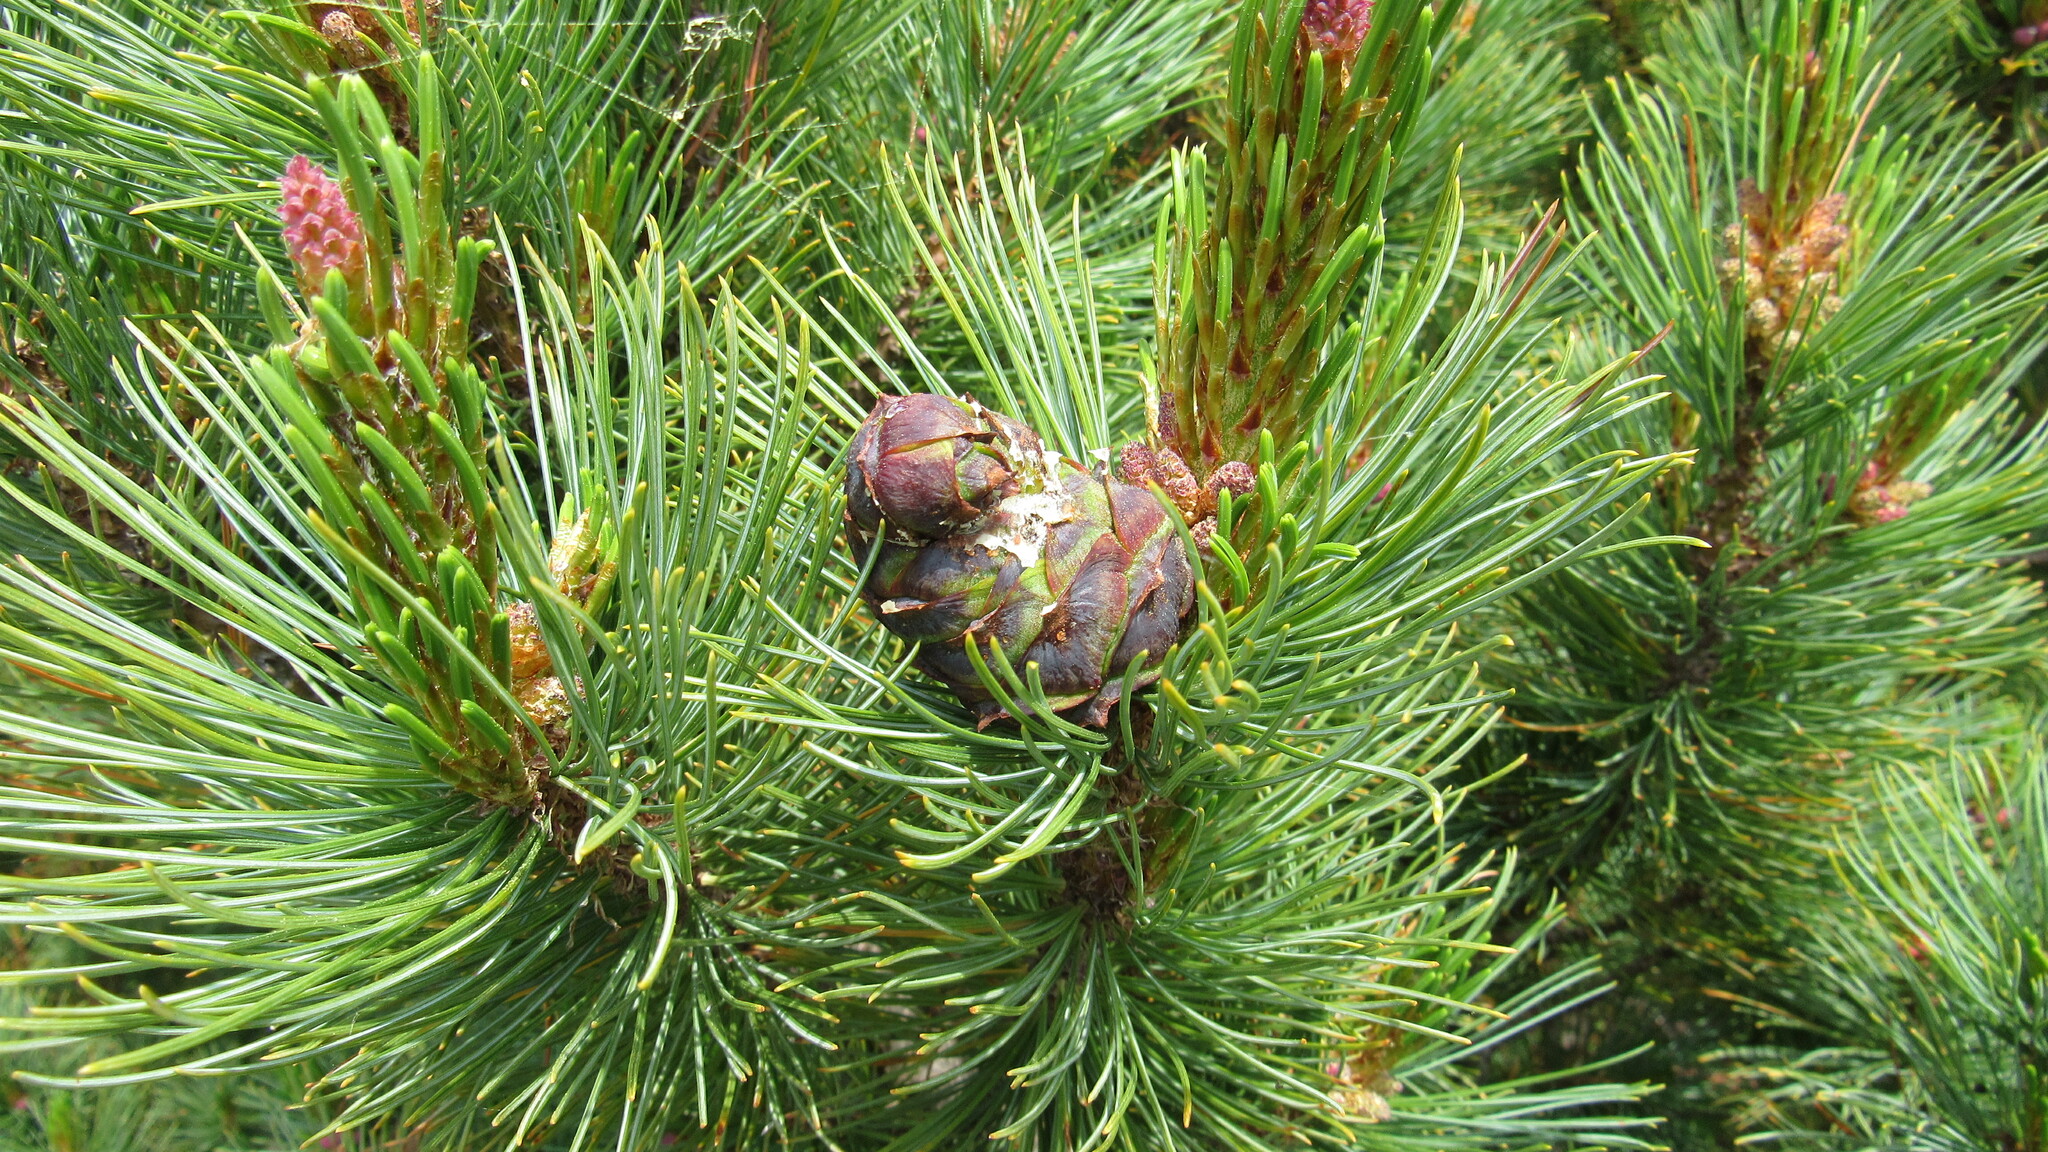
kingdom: Plantae
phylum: Tracheophyta
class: Pinopsida
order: Pinales
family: Pinaceae
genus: Pinus
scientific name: Pinus pumila
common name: Dwarf siberian pine
